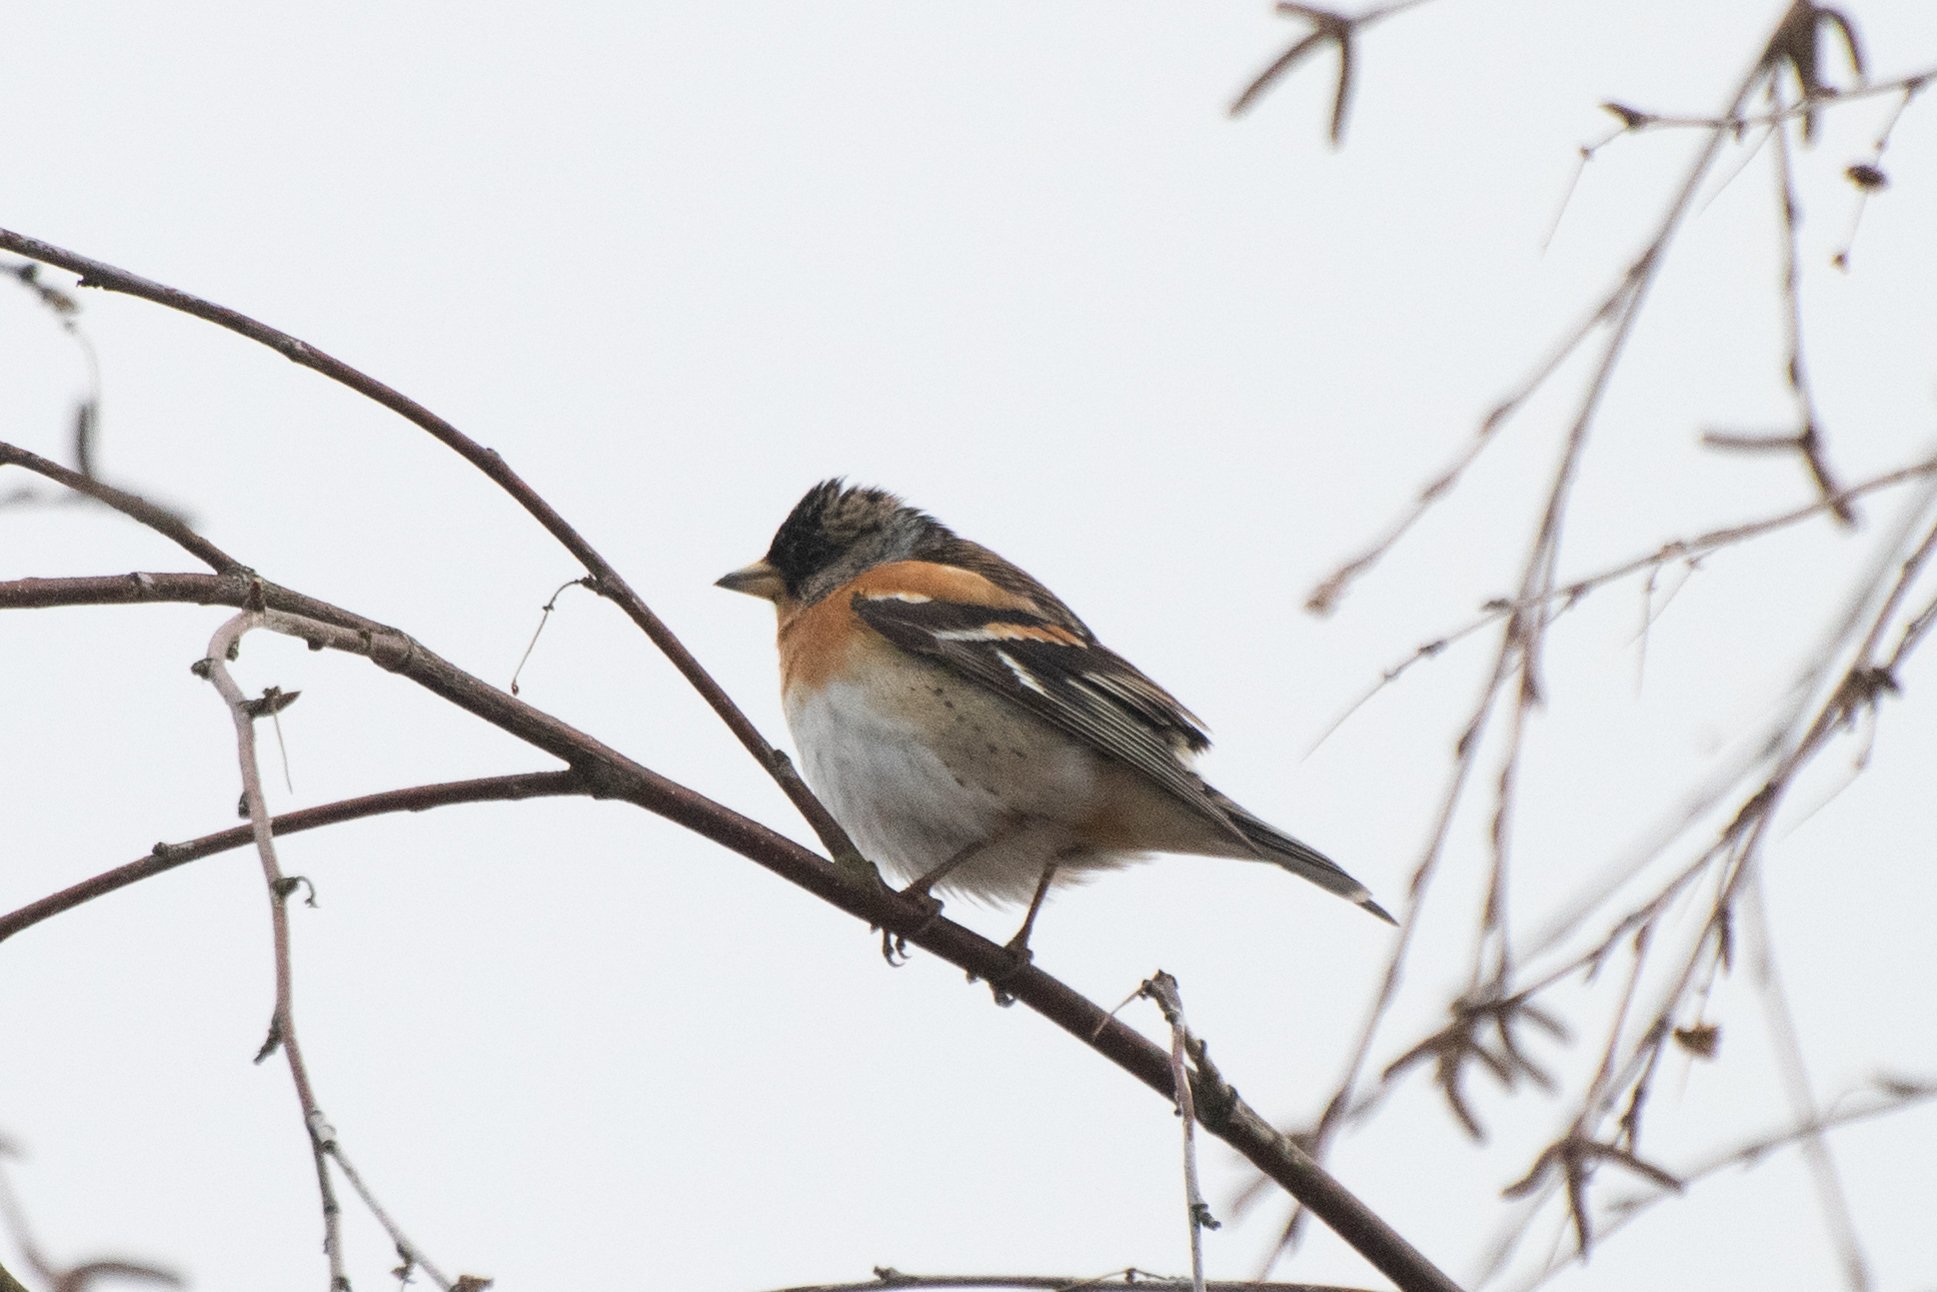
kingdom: Animalia
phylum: Chordata
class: Aves
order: Passeriformes
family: Fringillidae
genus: Fringilla
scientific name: Fringilla montifringilla
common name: Brambling
